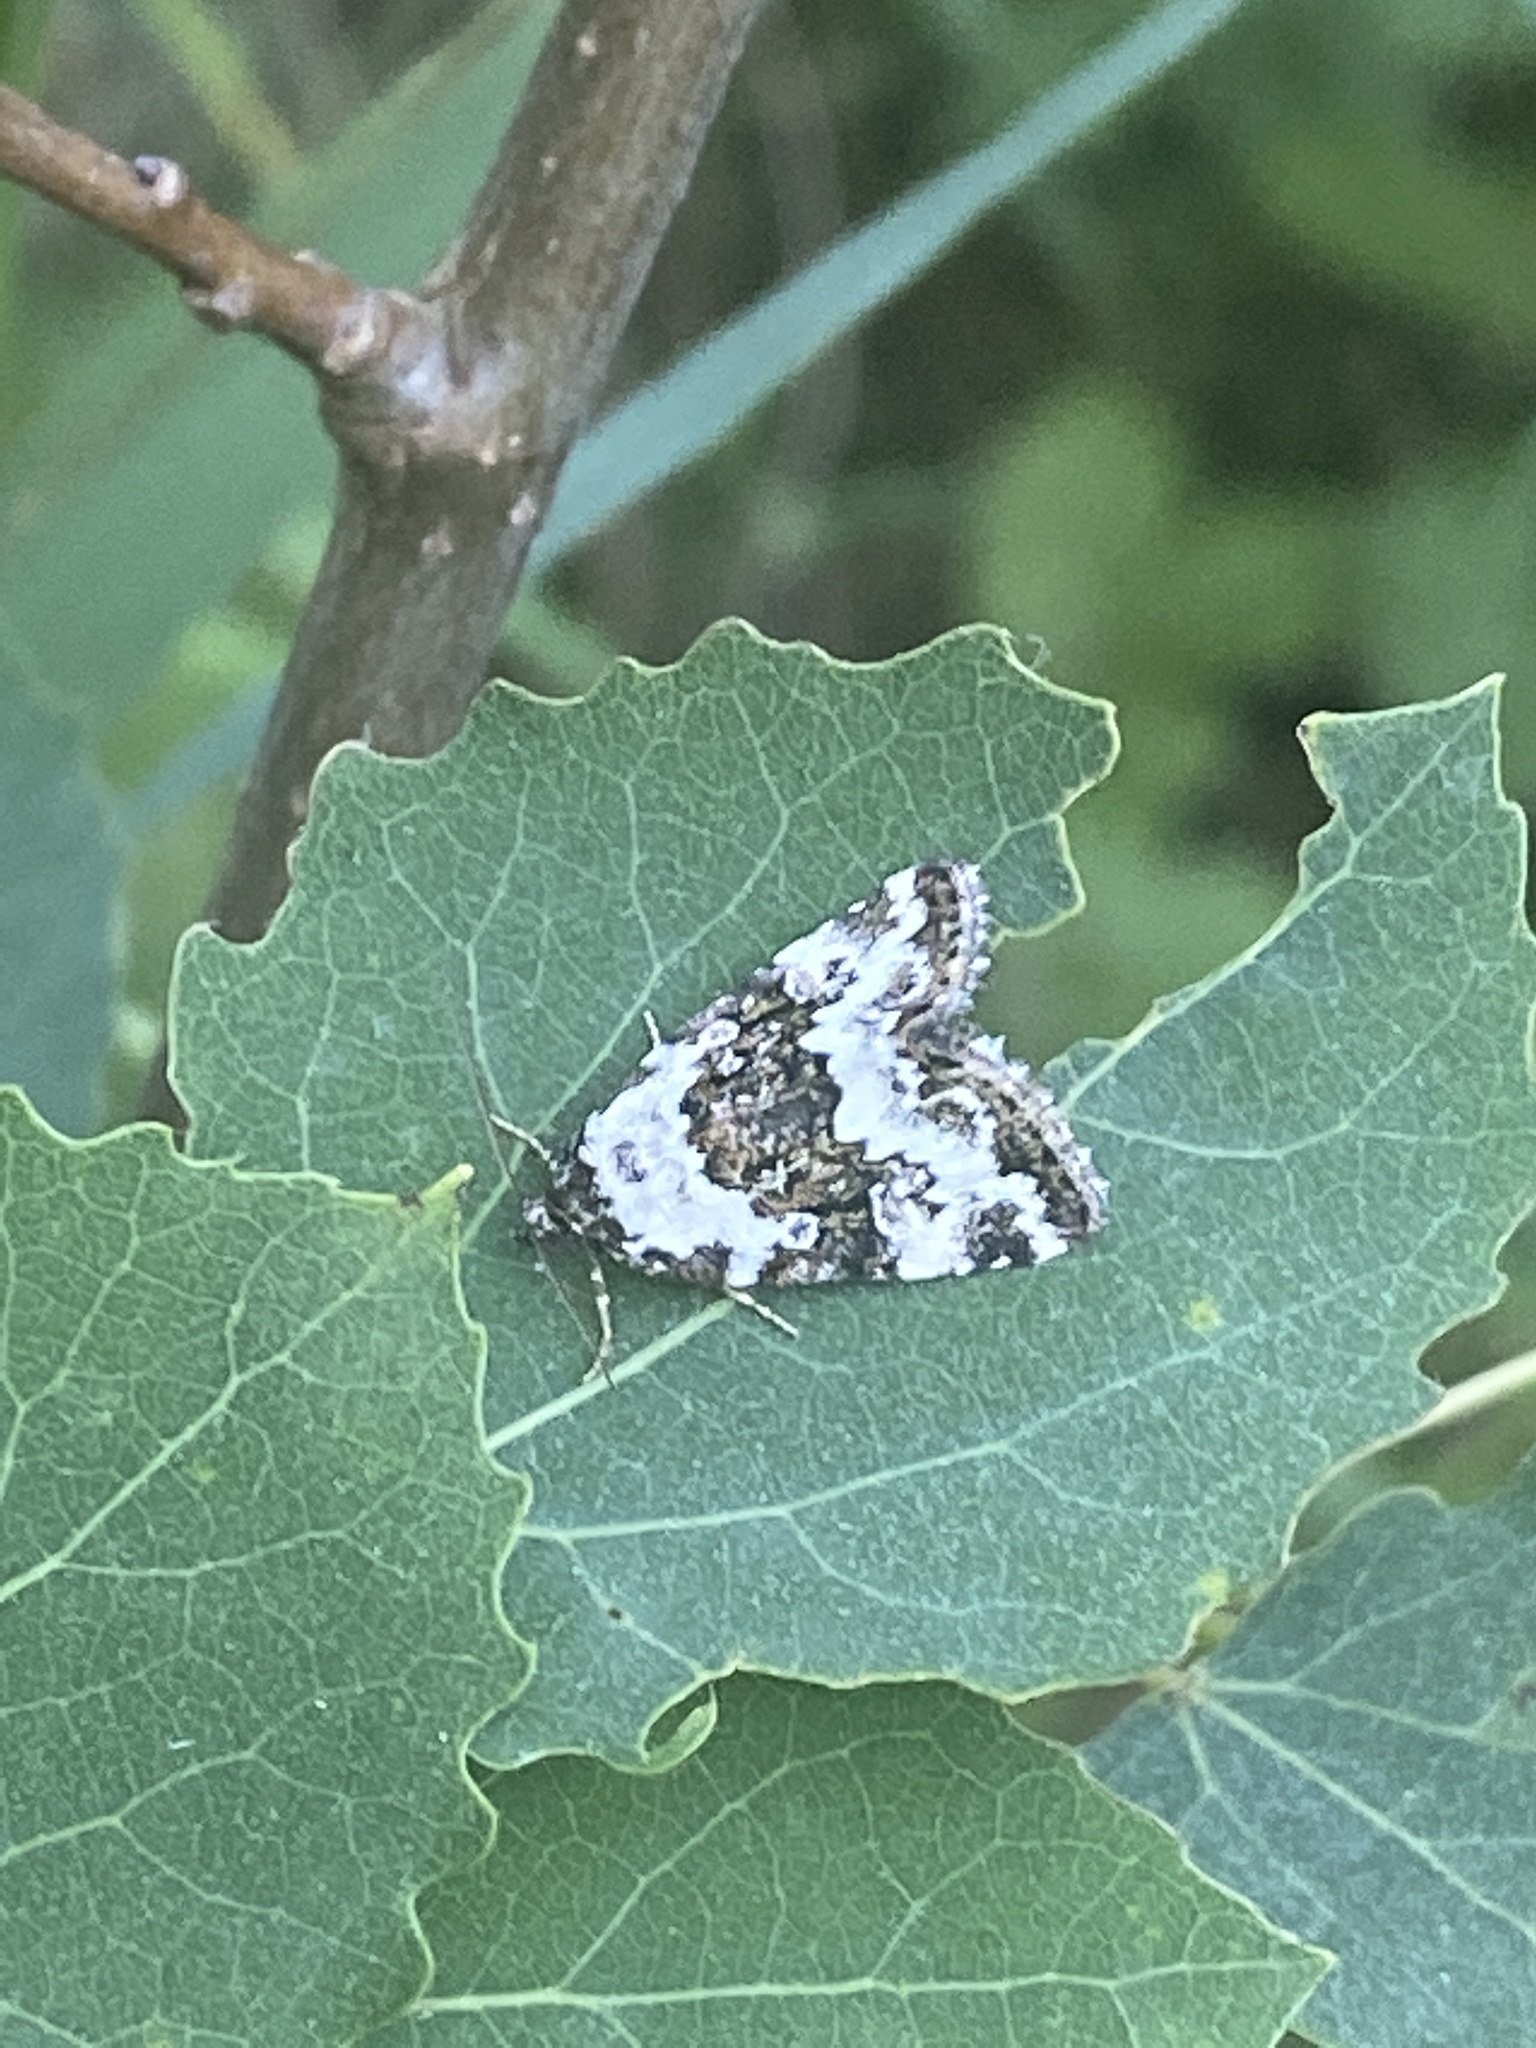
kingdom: Animalia
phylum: Arthropoda
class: Insecta
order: Lepidoptera
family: Noctuidae
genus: Deltote
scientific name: Deltote deceptoria
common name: Pretty marbled
